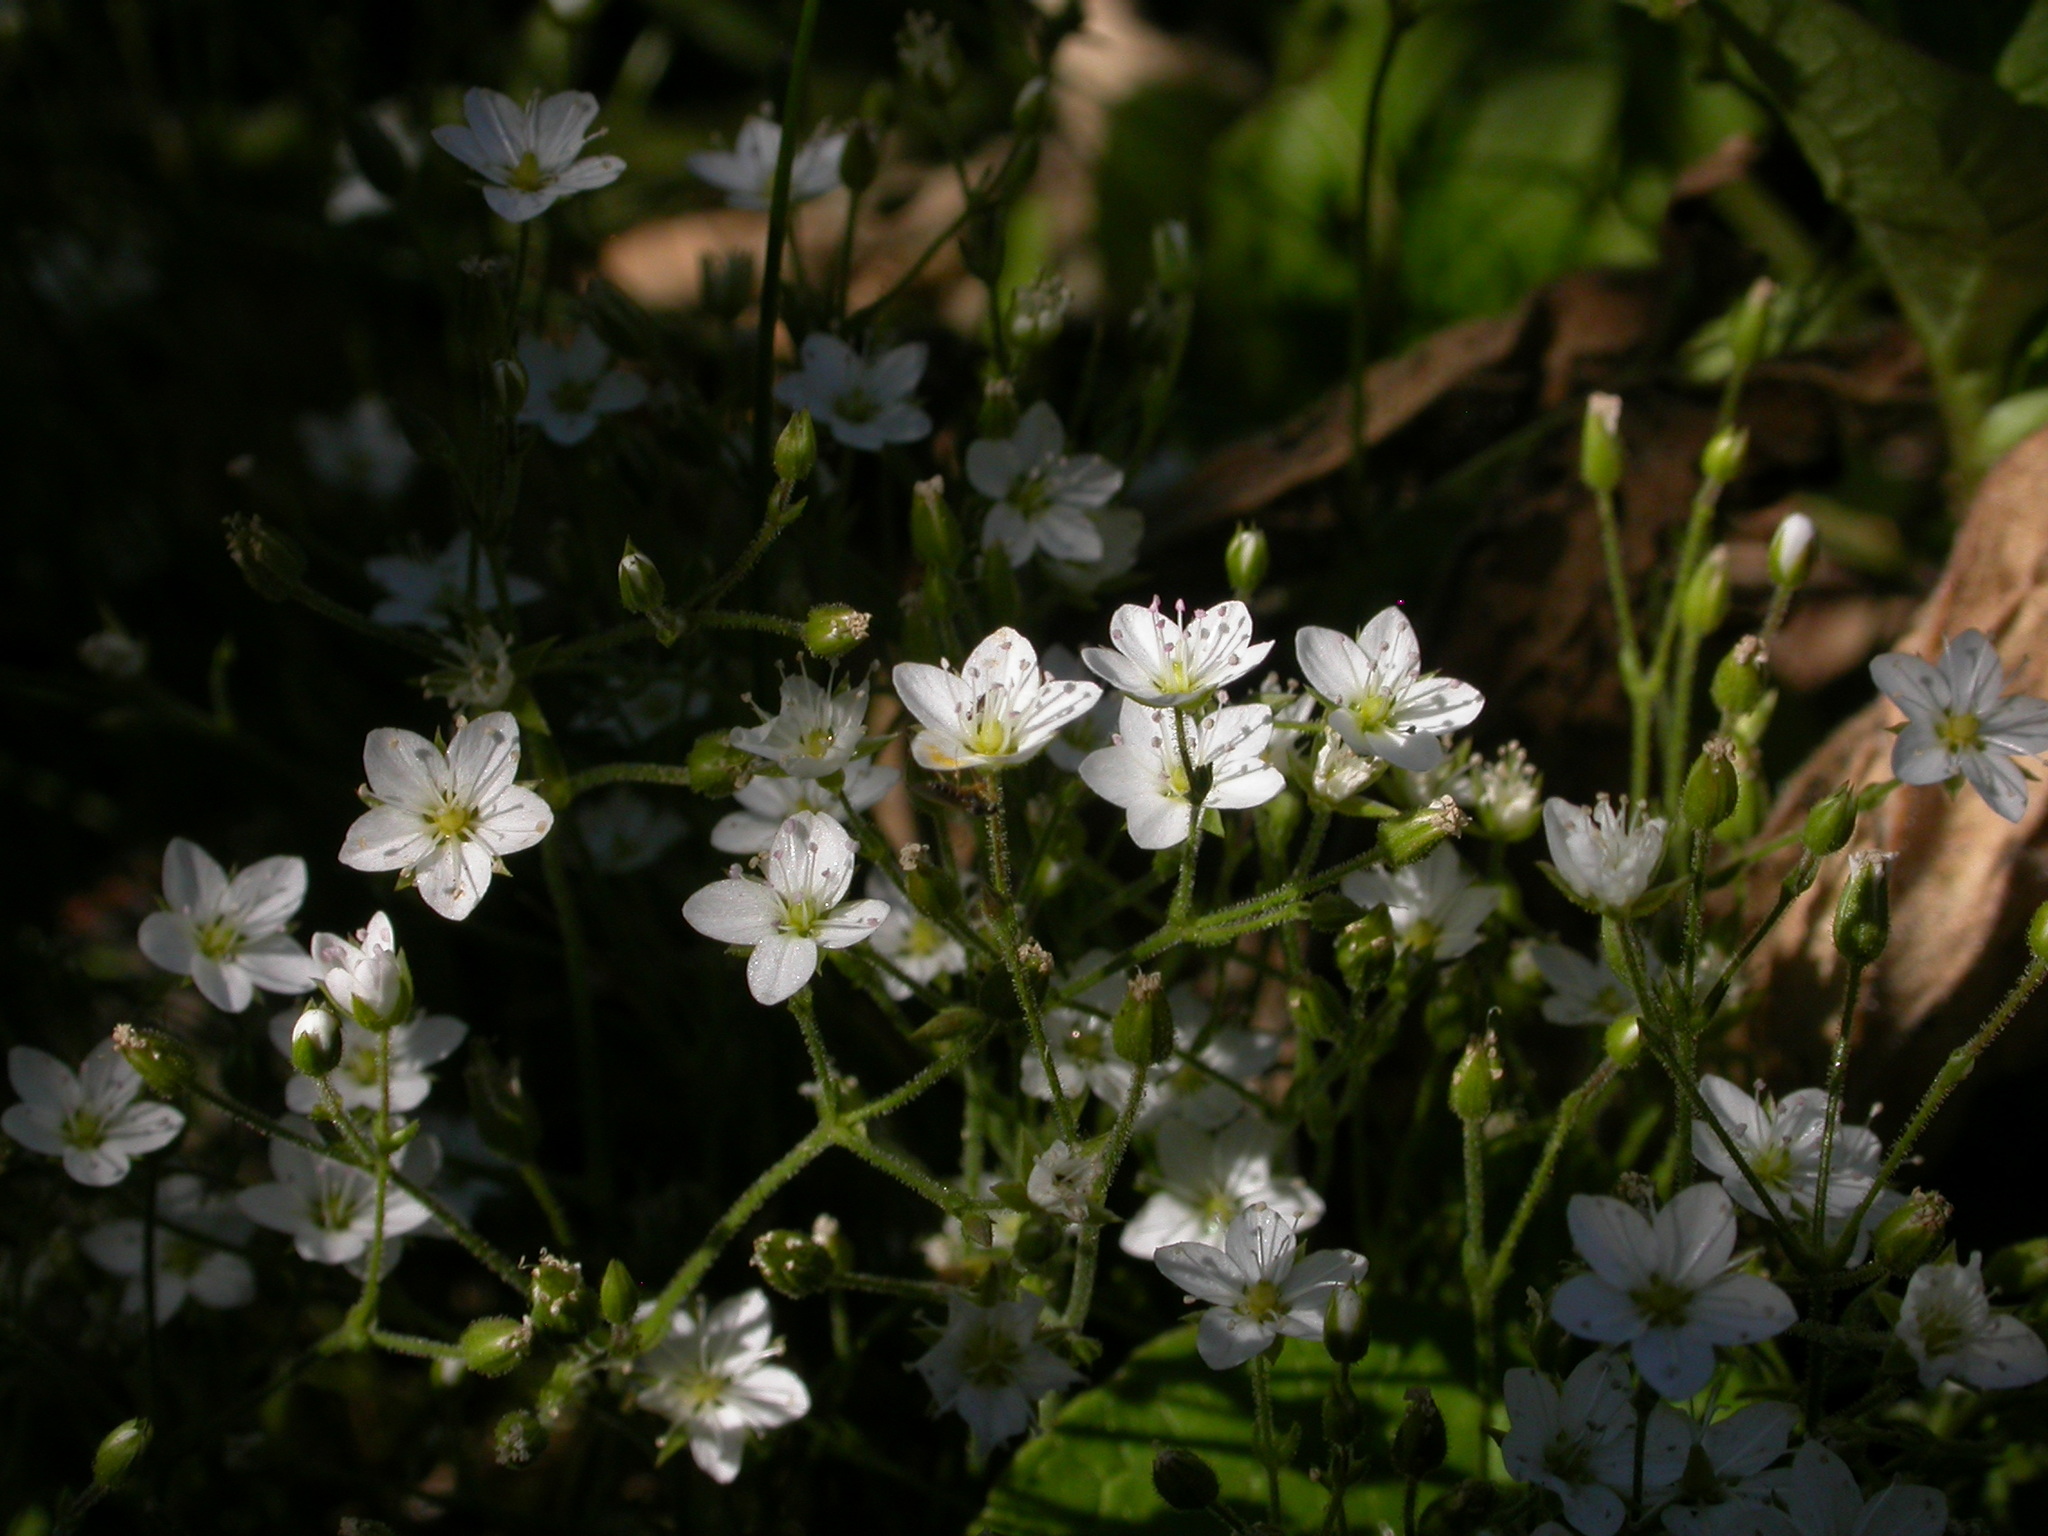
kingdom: Plantae
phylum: Tracheophyta
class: Magnoliopsida
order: Caryophyllales
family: Caryophyllaceae
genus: Sabulina
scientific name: Sabulina rubella
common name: Beautiful sandwort
